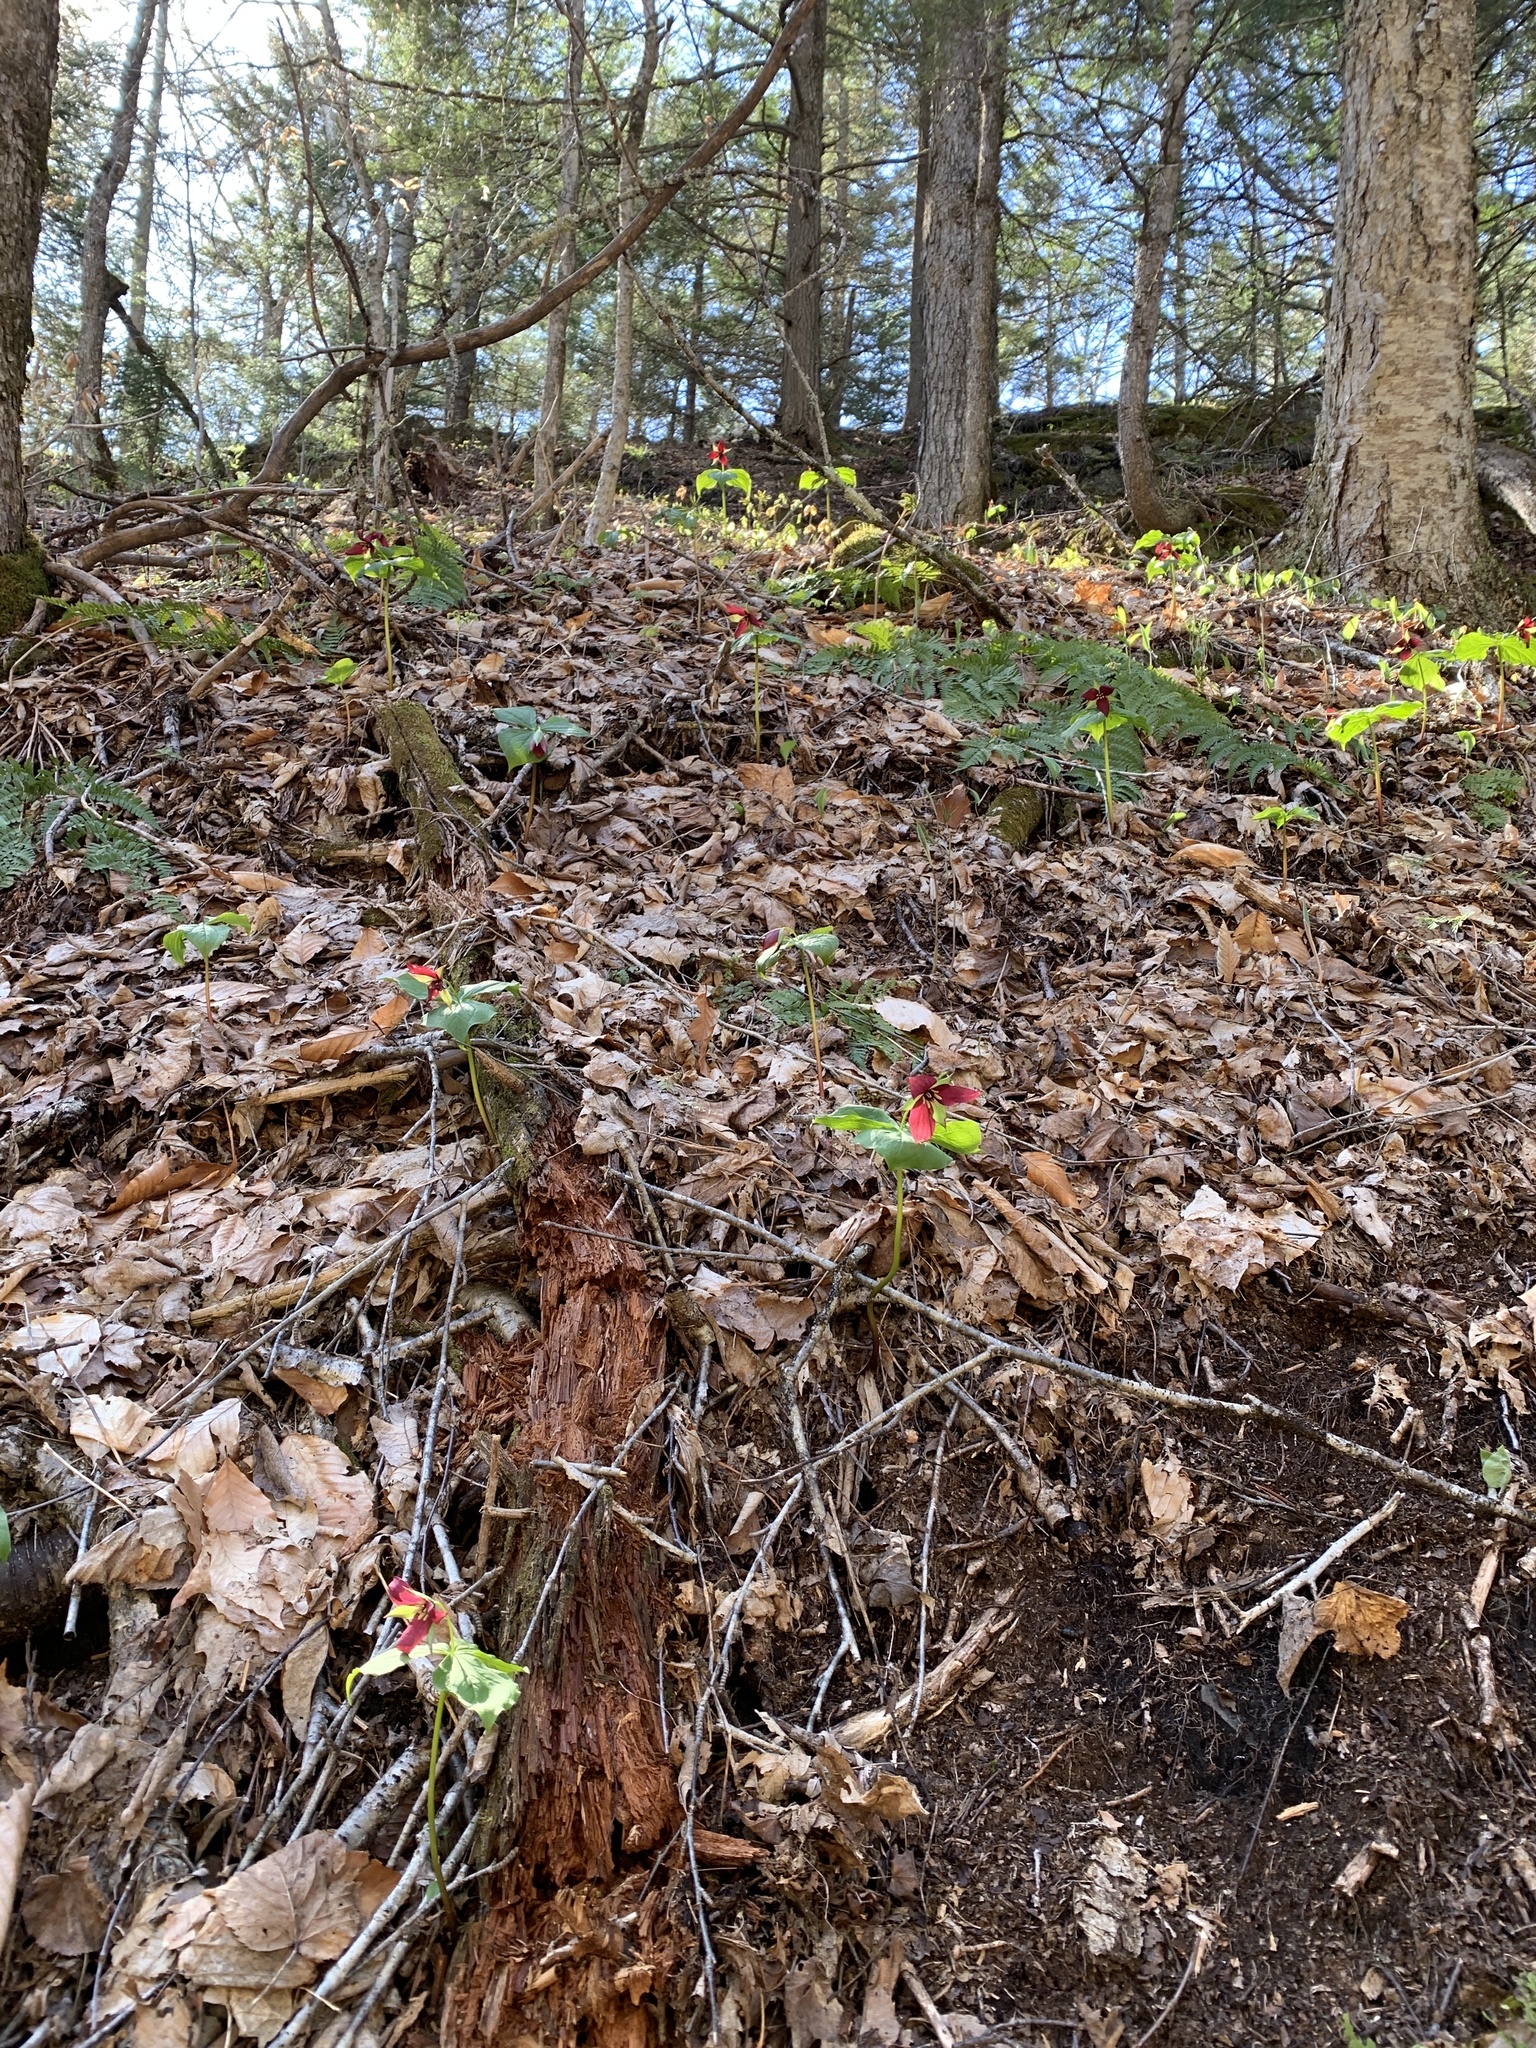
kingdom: Plantae
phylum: Tracheophyta
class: Liliopsida
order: Liliales
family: Melanthiaceae
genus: Trillium
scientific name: Trillium erectum
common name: Purple trillium
